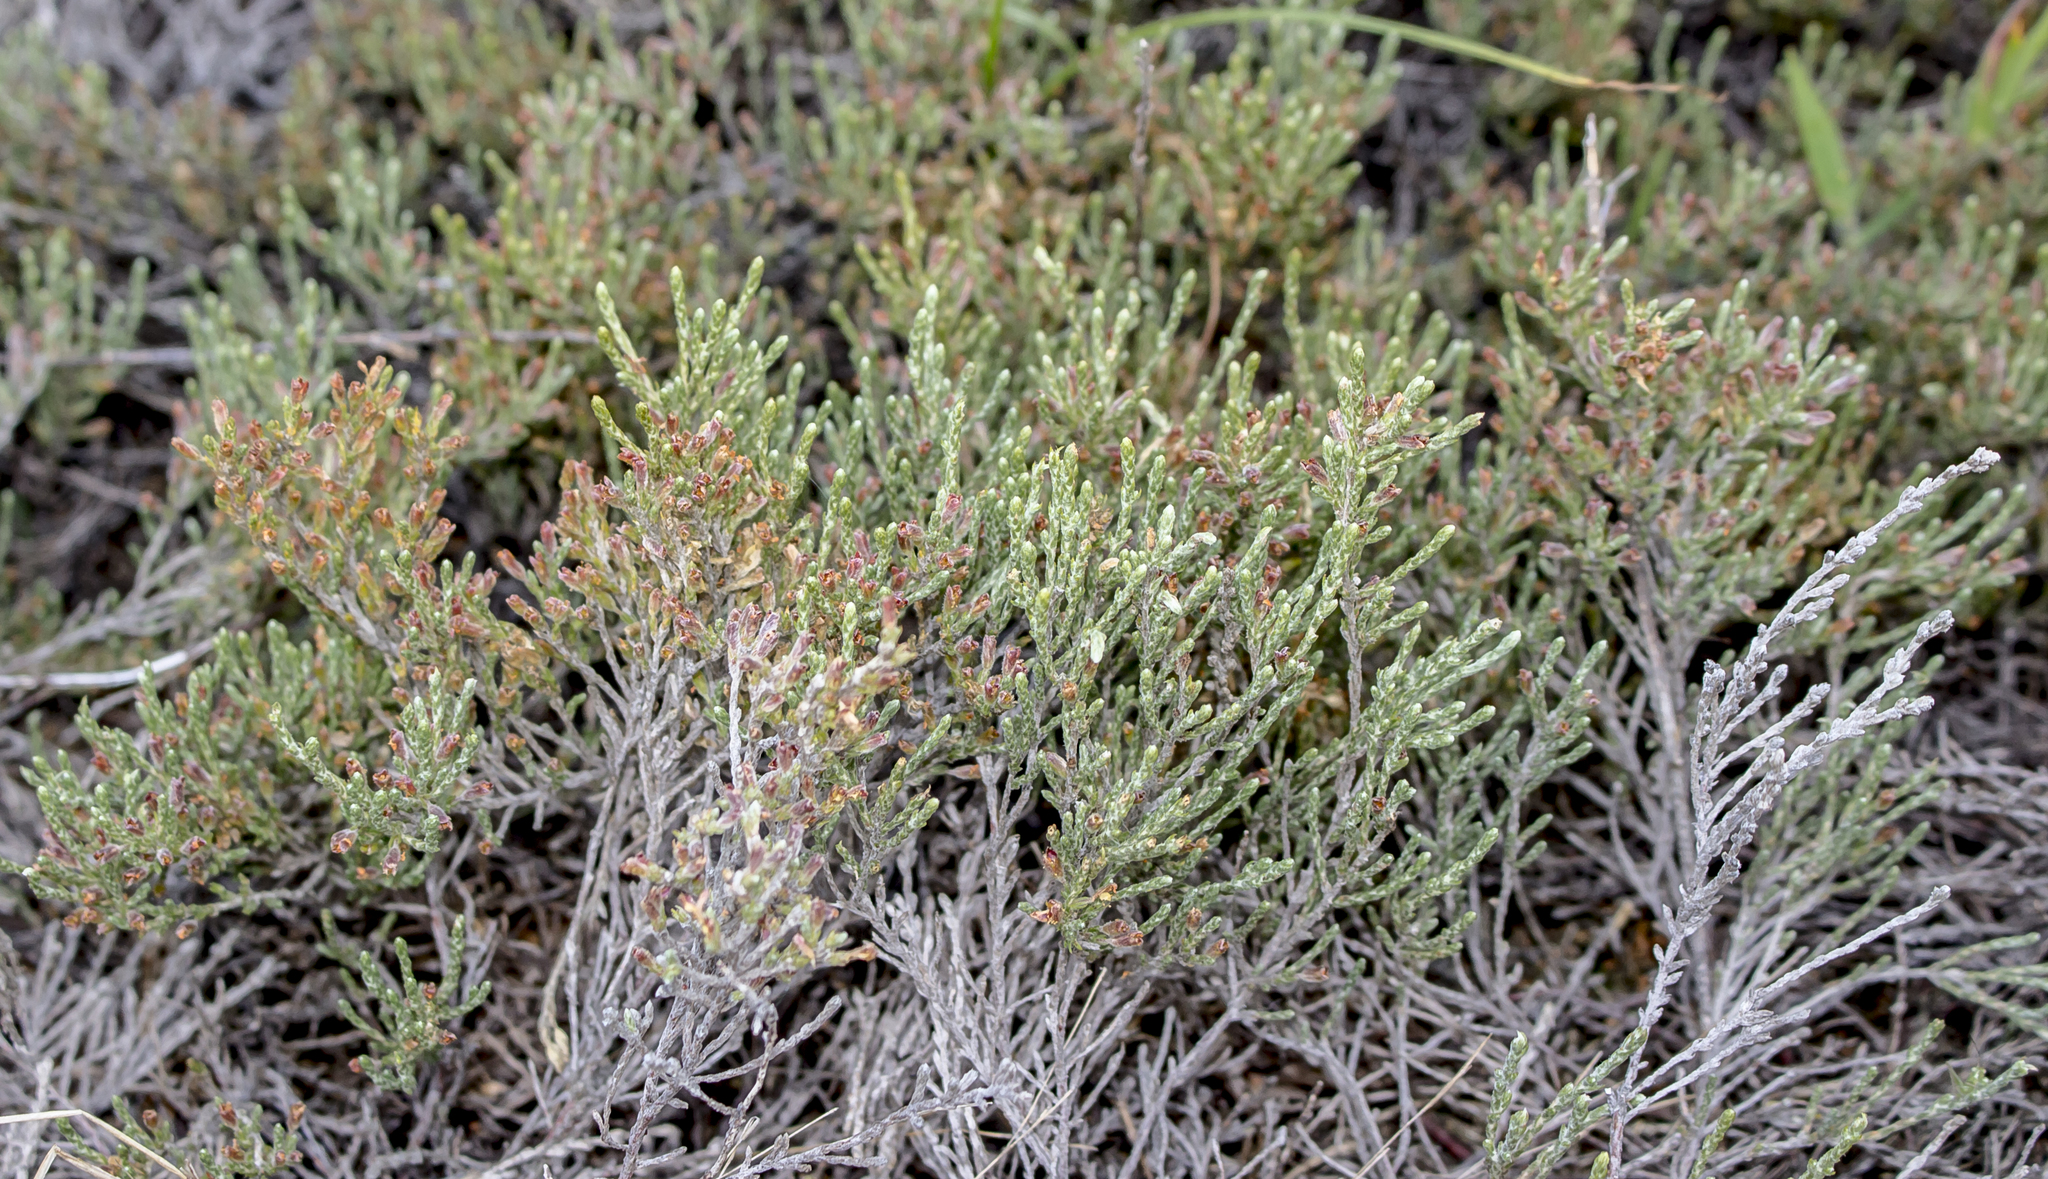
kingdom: Plantae
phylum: Tracheophyta
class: Magnoliopsida
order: Malvales
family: Cistaceae
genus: Hudsonia
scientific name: Hudsonia tomentosa
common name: Beach-heath
